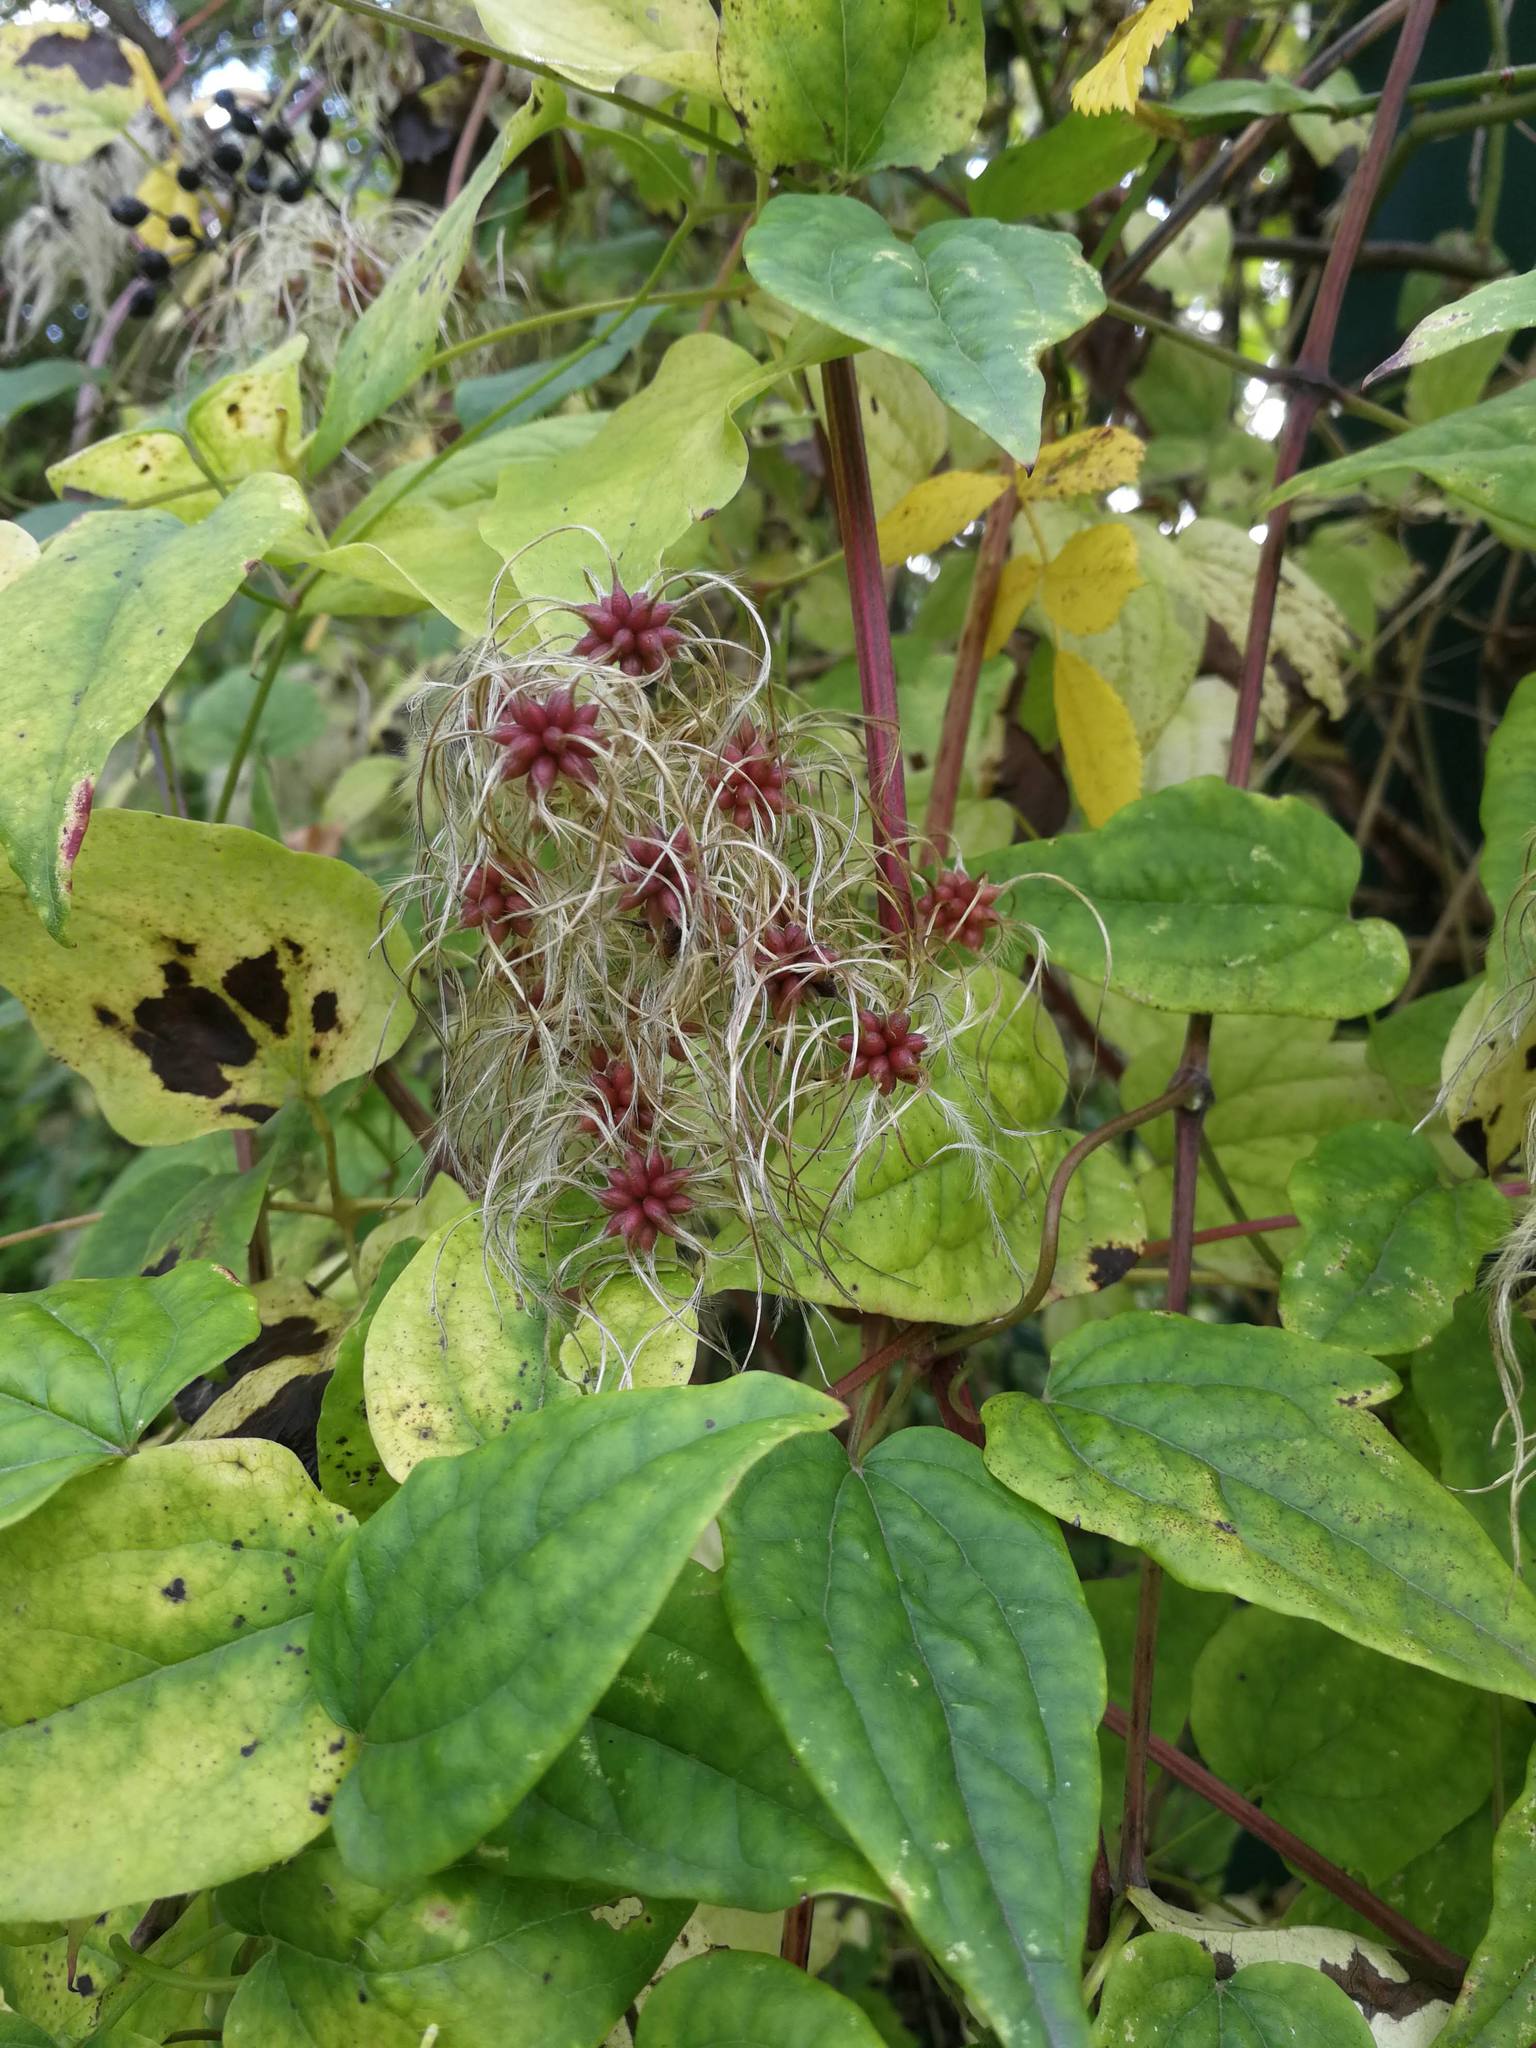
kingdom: Plantae
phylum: Tracheophyta
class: Magnoliopsida
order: Ranunculales
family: Ranunculaceae
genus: Clematis
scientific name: Clematis vitalba
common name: Evergreen clematis
